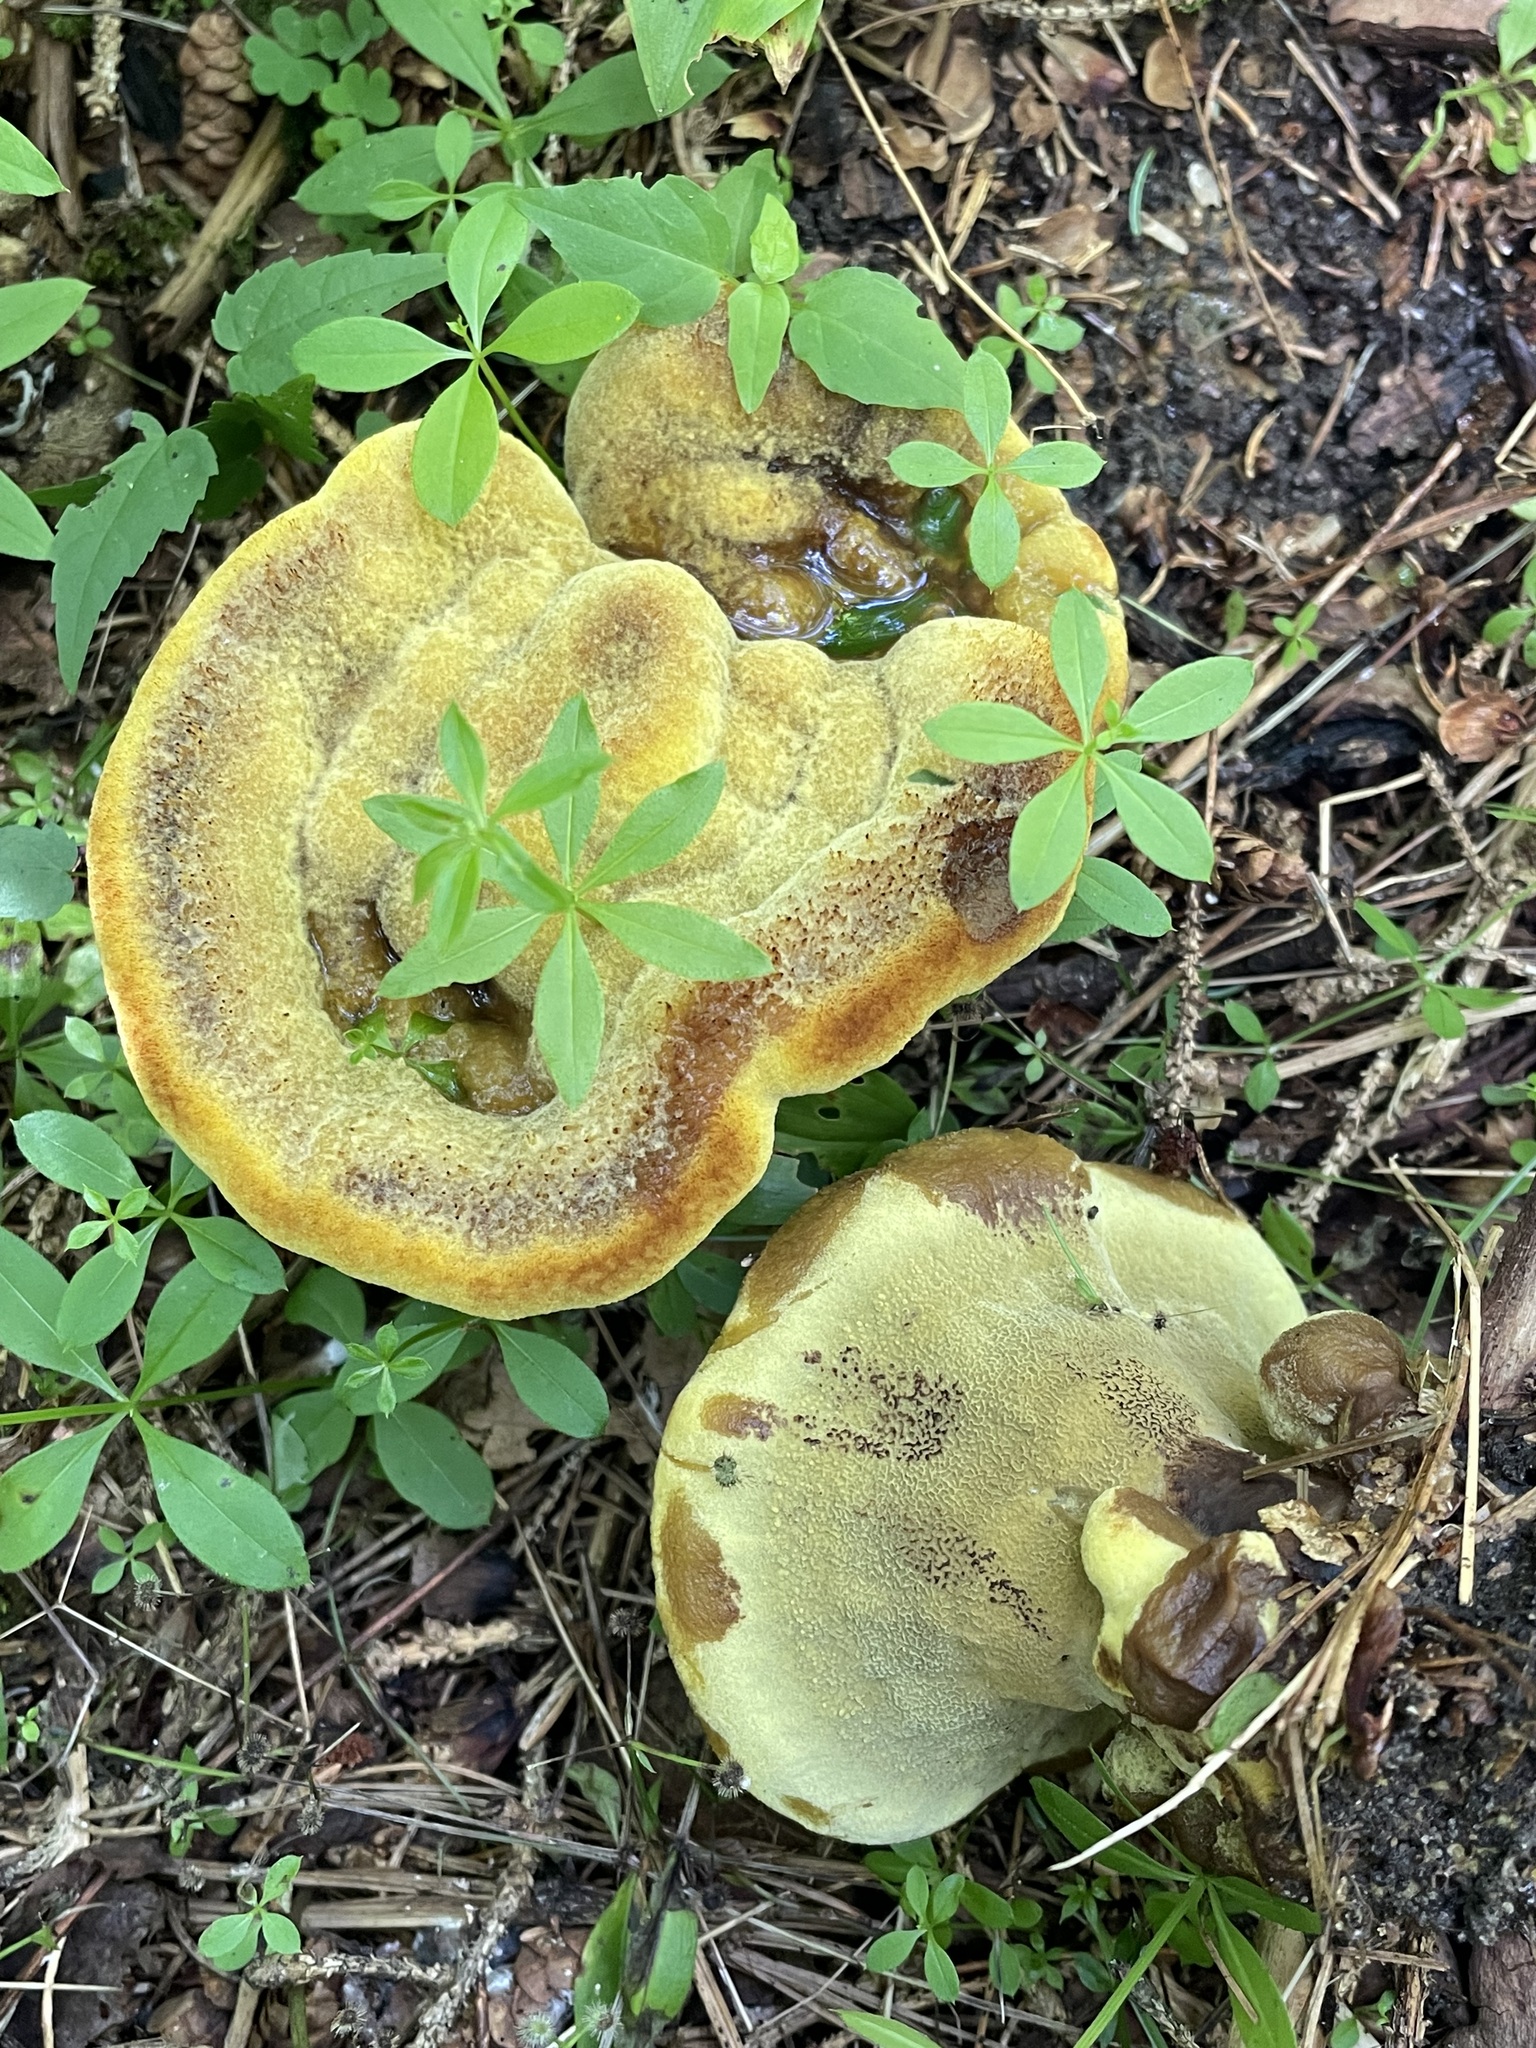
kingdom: Fungi
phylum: Basidiomycota
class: Agaricomycetes
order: Polyporales
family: Laetiporaceae
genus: Phaeolus
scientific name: Phaeolus schweinitzii
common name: Dyer's mazegill
